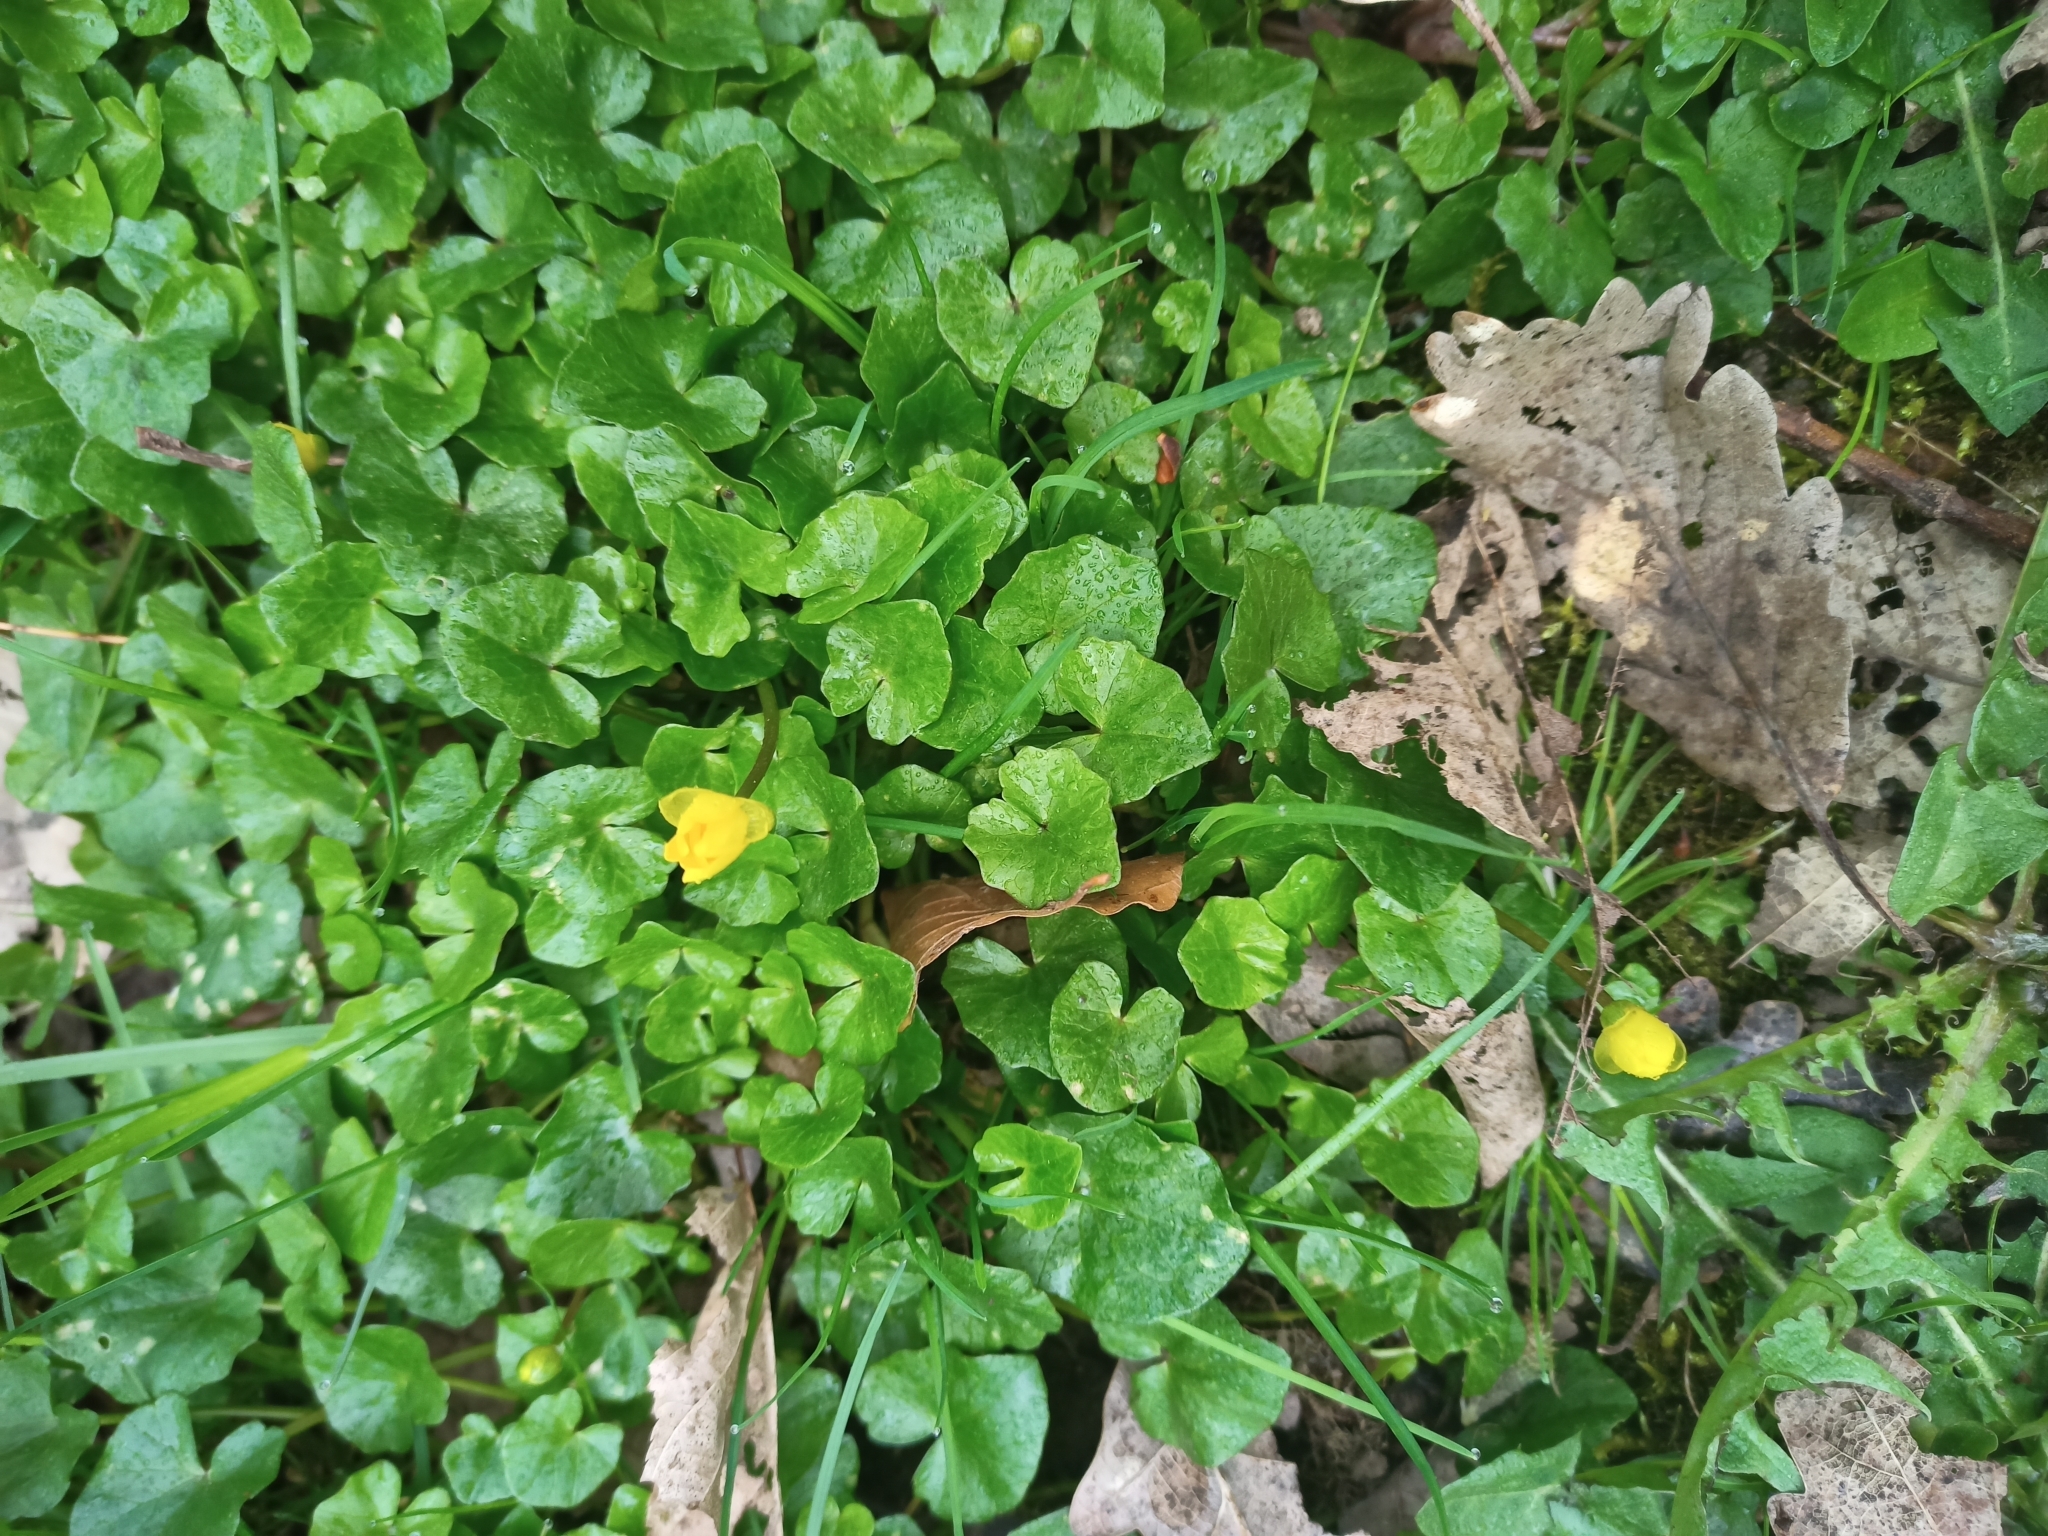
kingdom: Plantae
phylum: Tracheophyta
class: Magnoliopsida
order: Ranunculales
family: Ranunculaceae
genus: Ficaria
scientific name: Ficaria verna
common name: Lesser celandine
